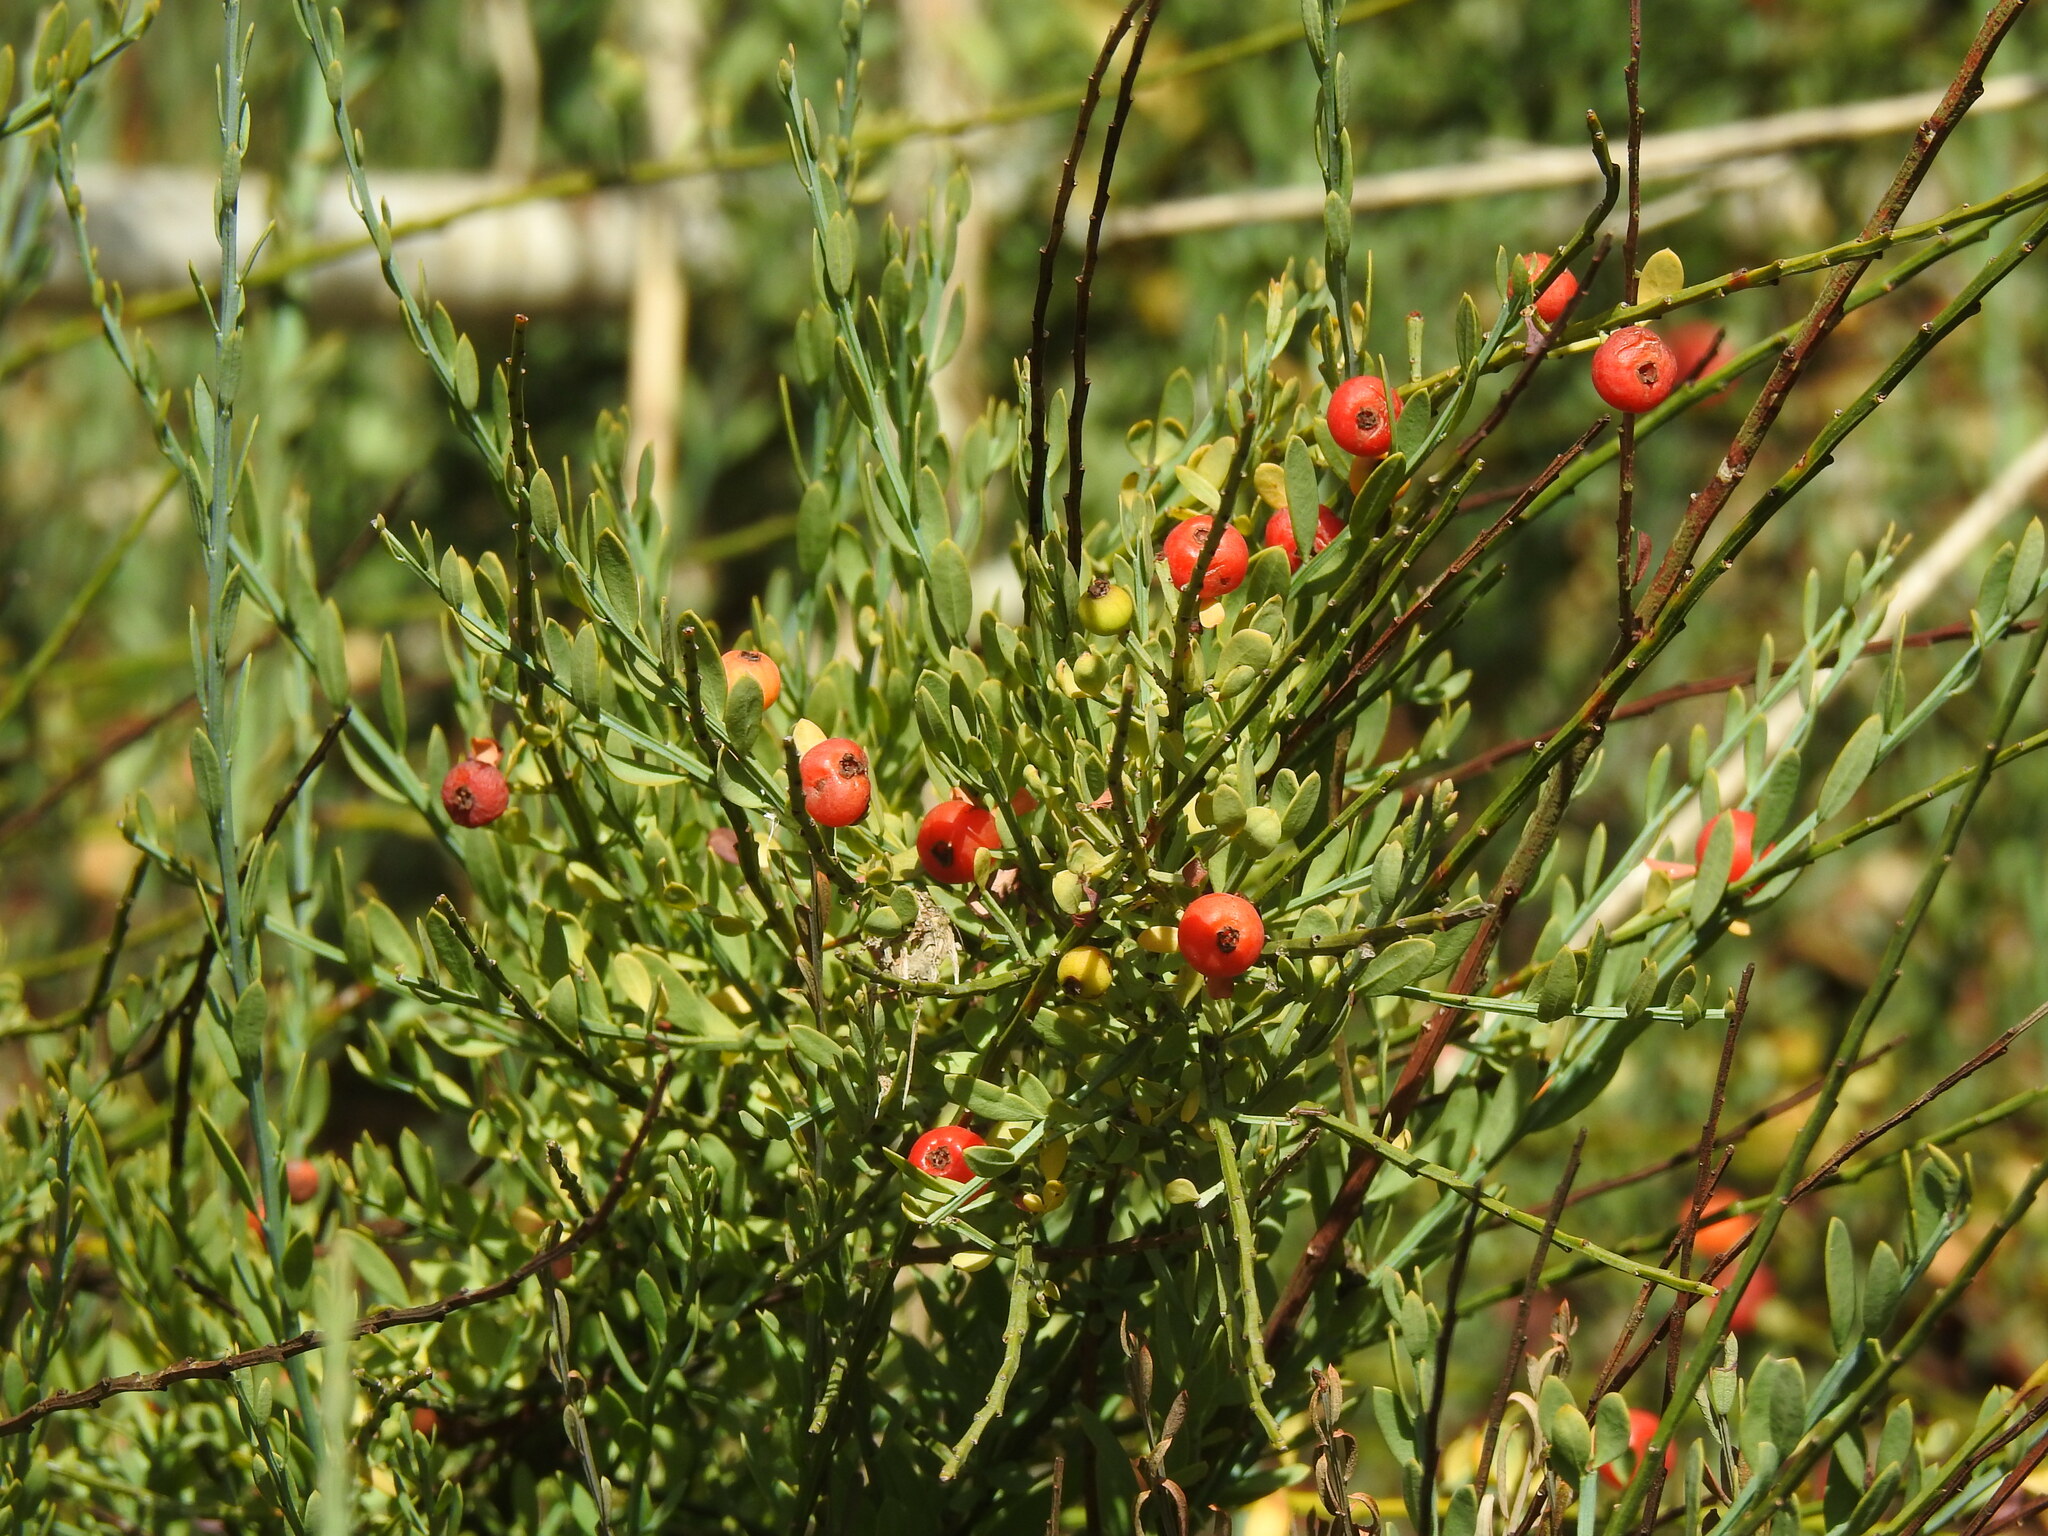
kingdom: Plantae
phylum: Tracheophyta
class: Magnoliopsida
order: Santalales
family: Santalaceae
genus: Osyris
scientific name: Osyris alba
